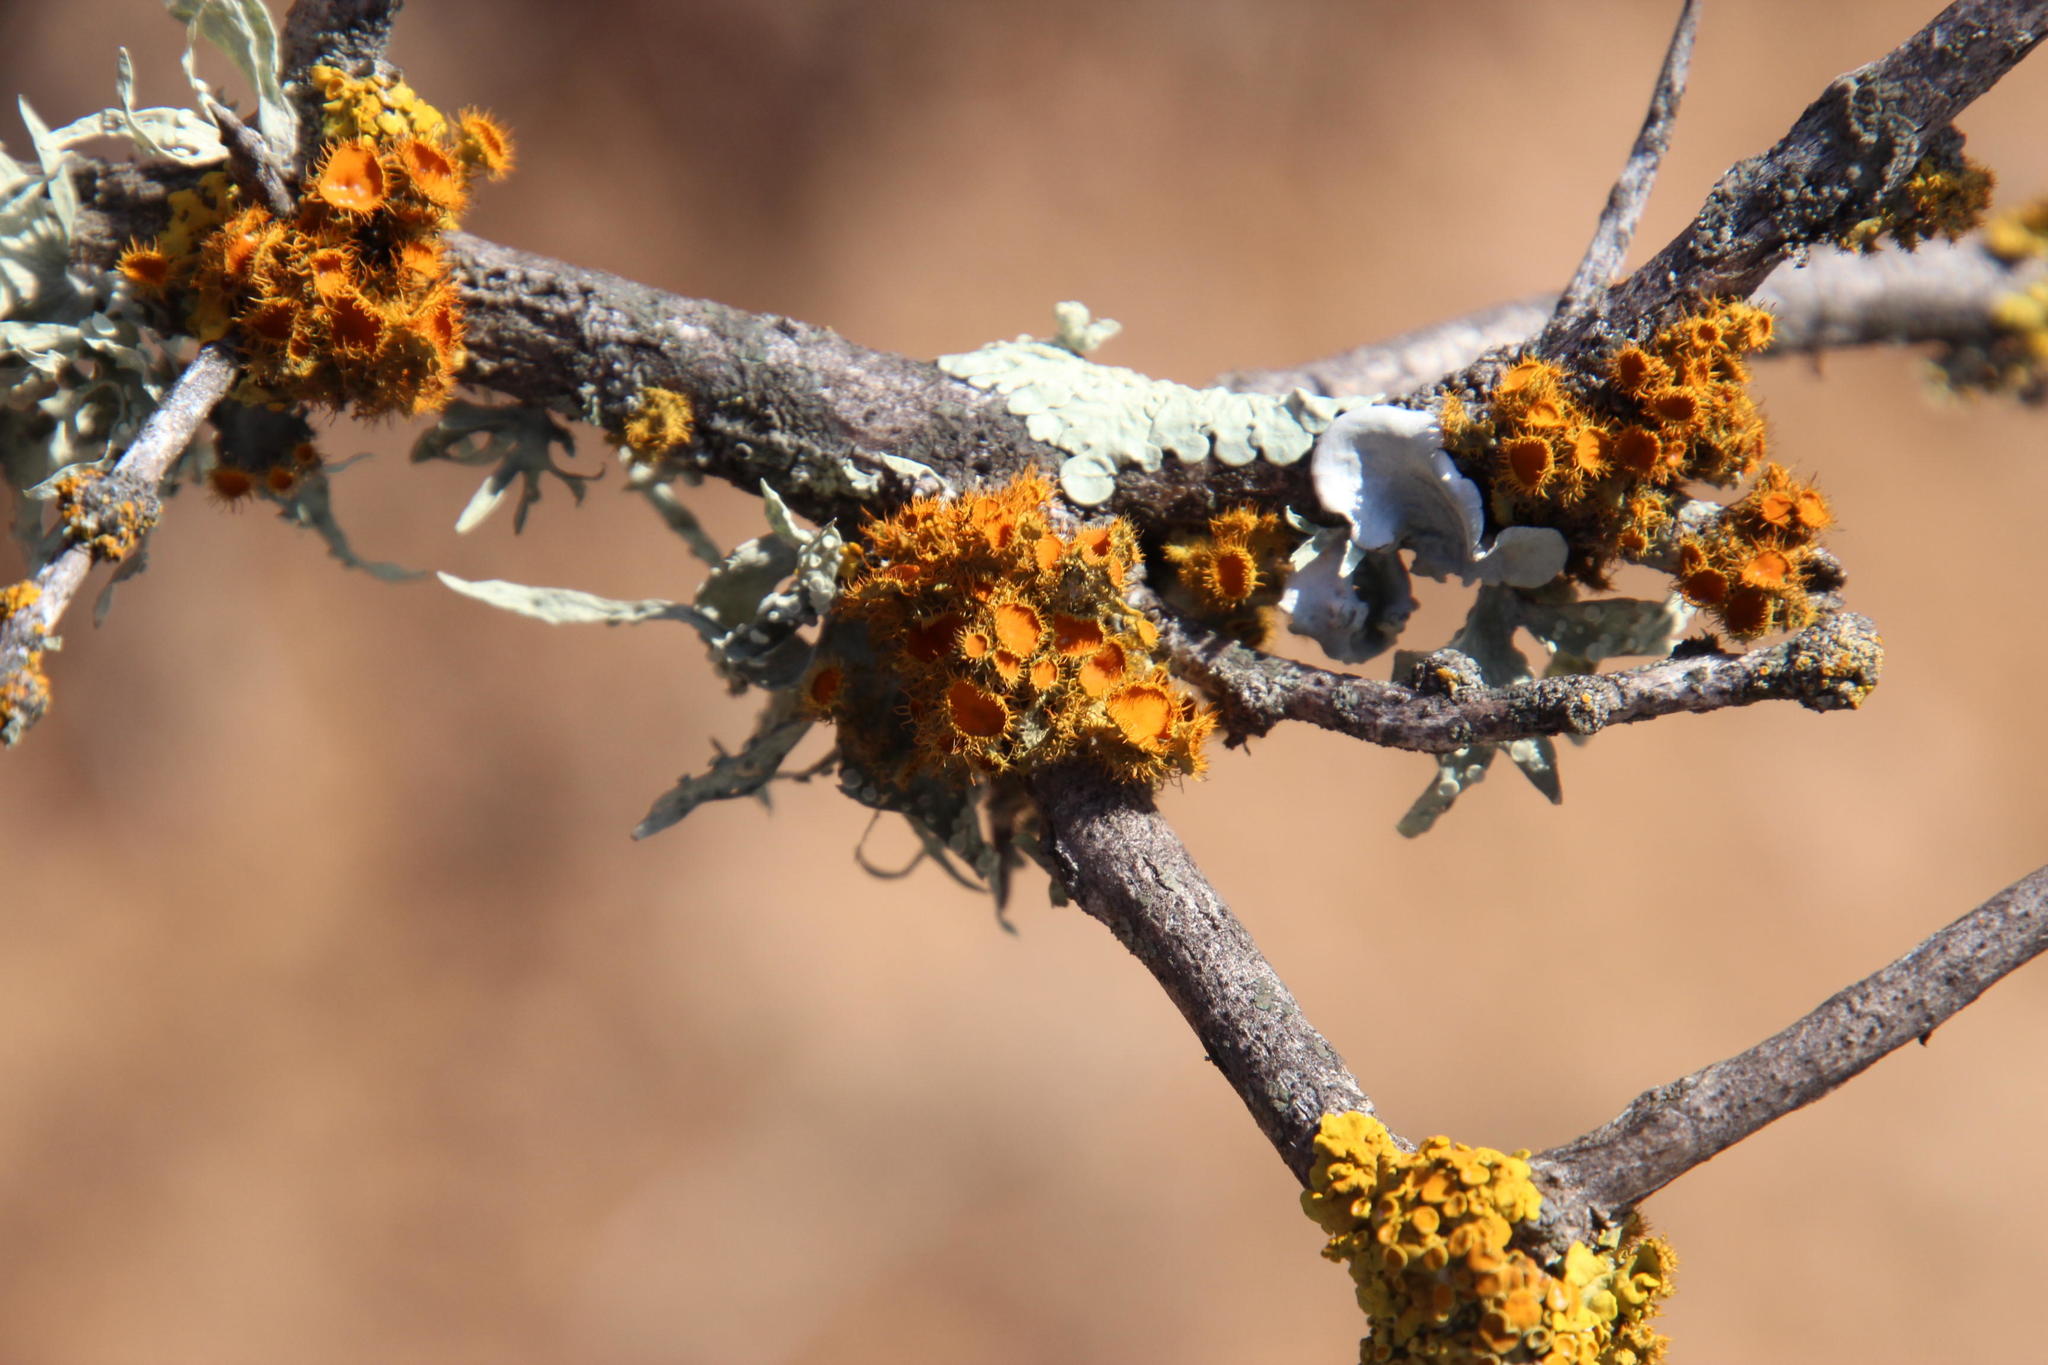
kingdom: Fungi
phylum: Ascomycota
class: Lecanoromycetes
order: Teloschistales
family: Teloschistaceae
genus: Niorma
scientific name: Niorma chrysophthalma
